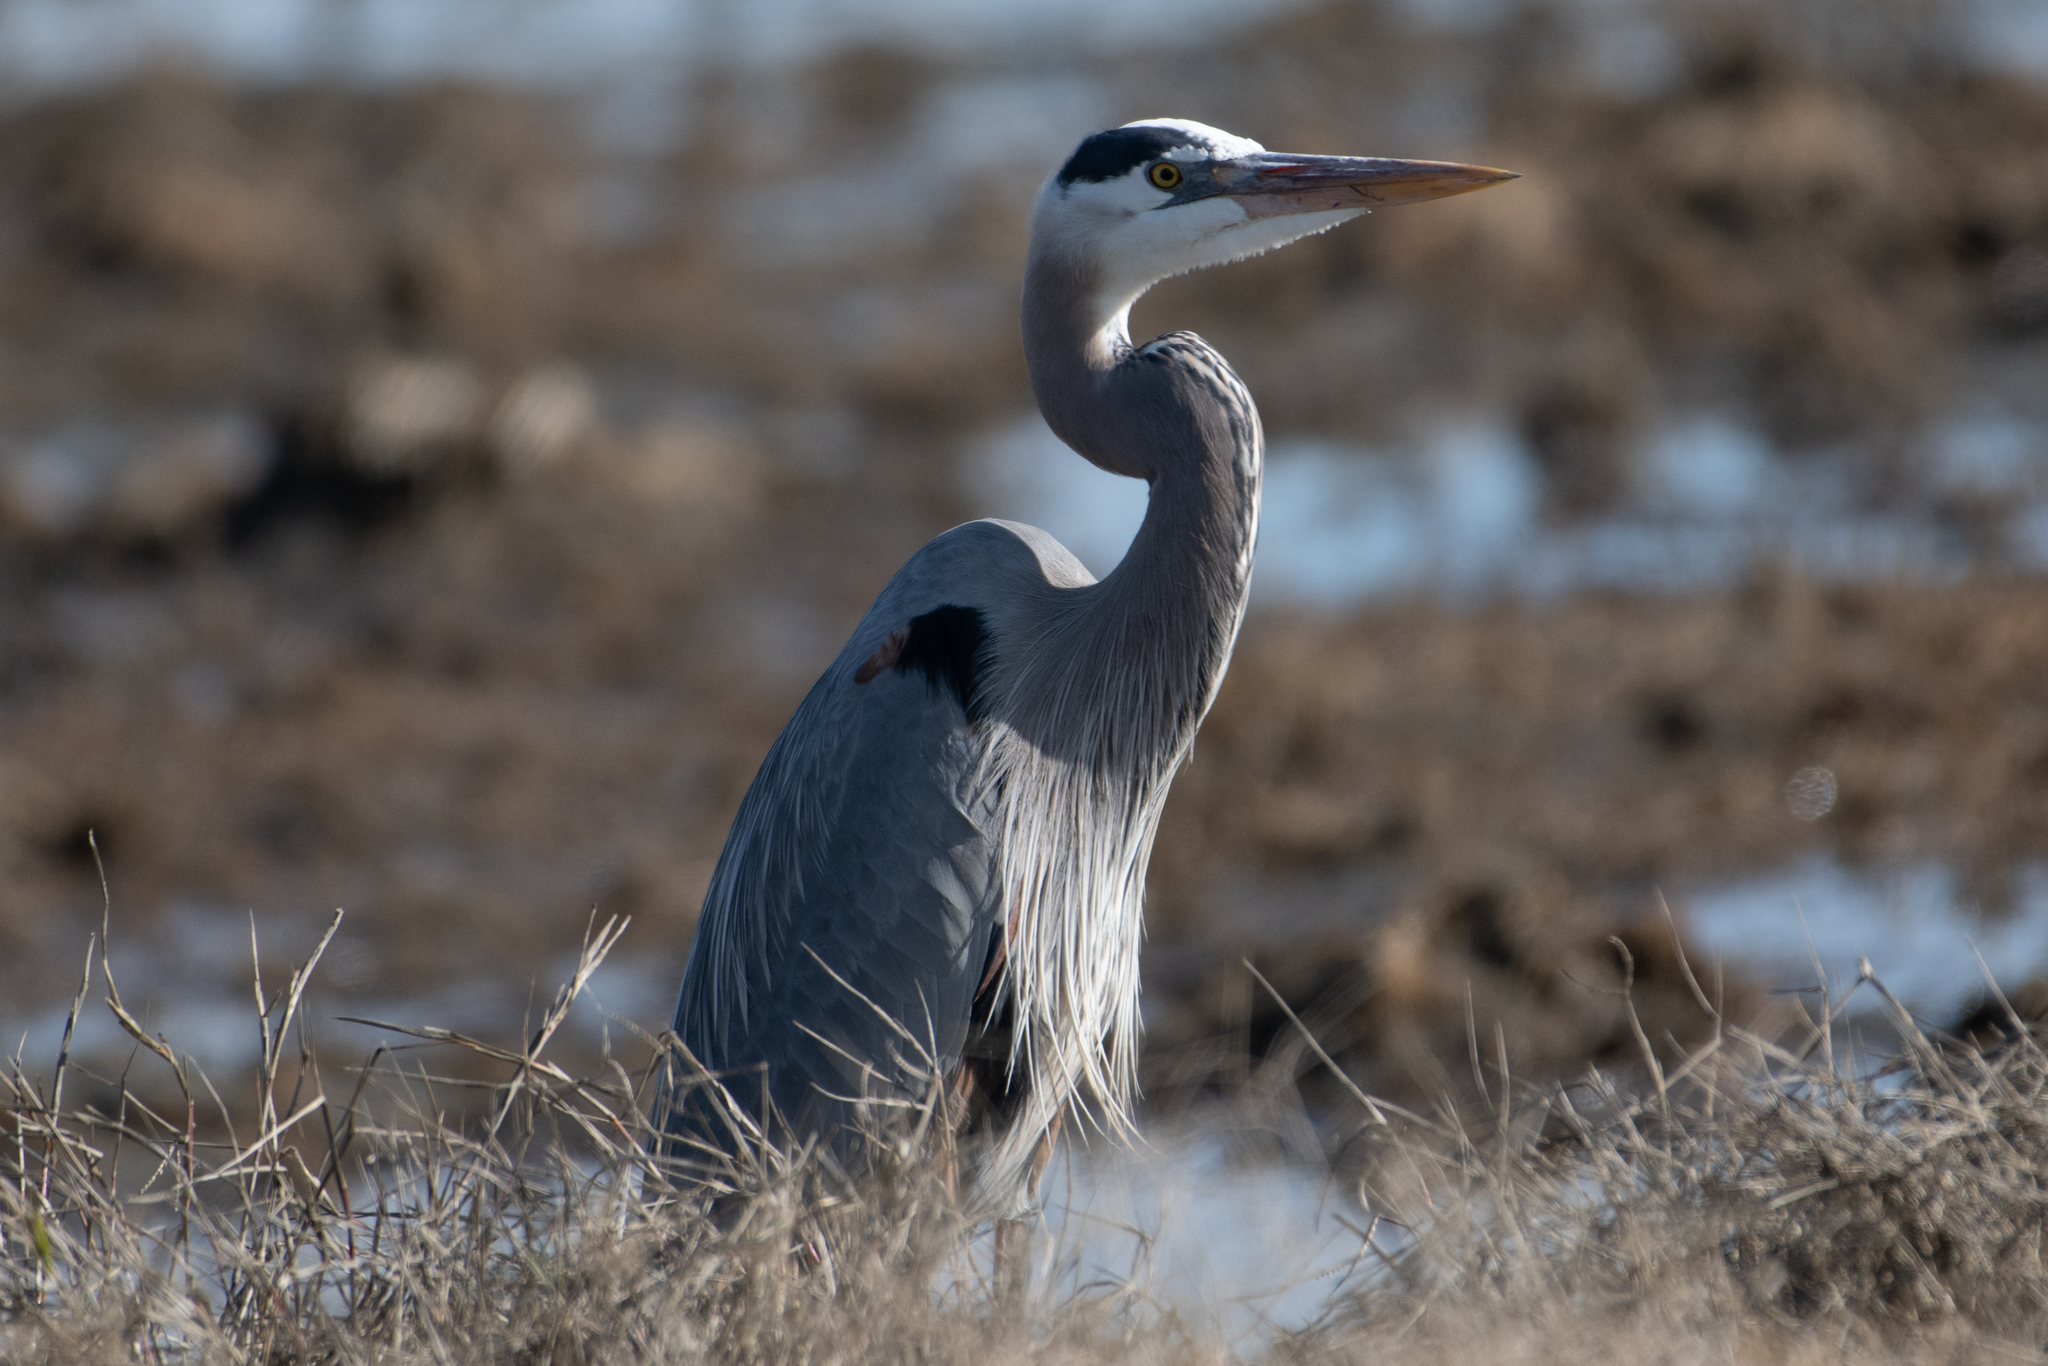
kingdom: Animalia
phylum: Chordata
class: Aves
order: Pelecaniformes
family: Ardeidae
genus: Ardea
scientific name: Ardea herodias
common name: Great blue heron
